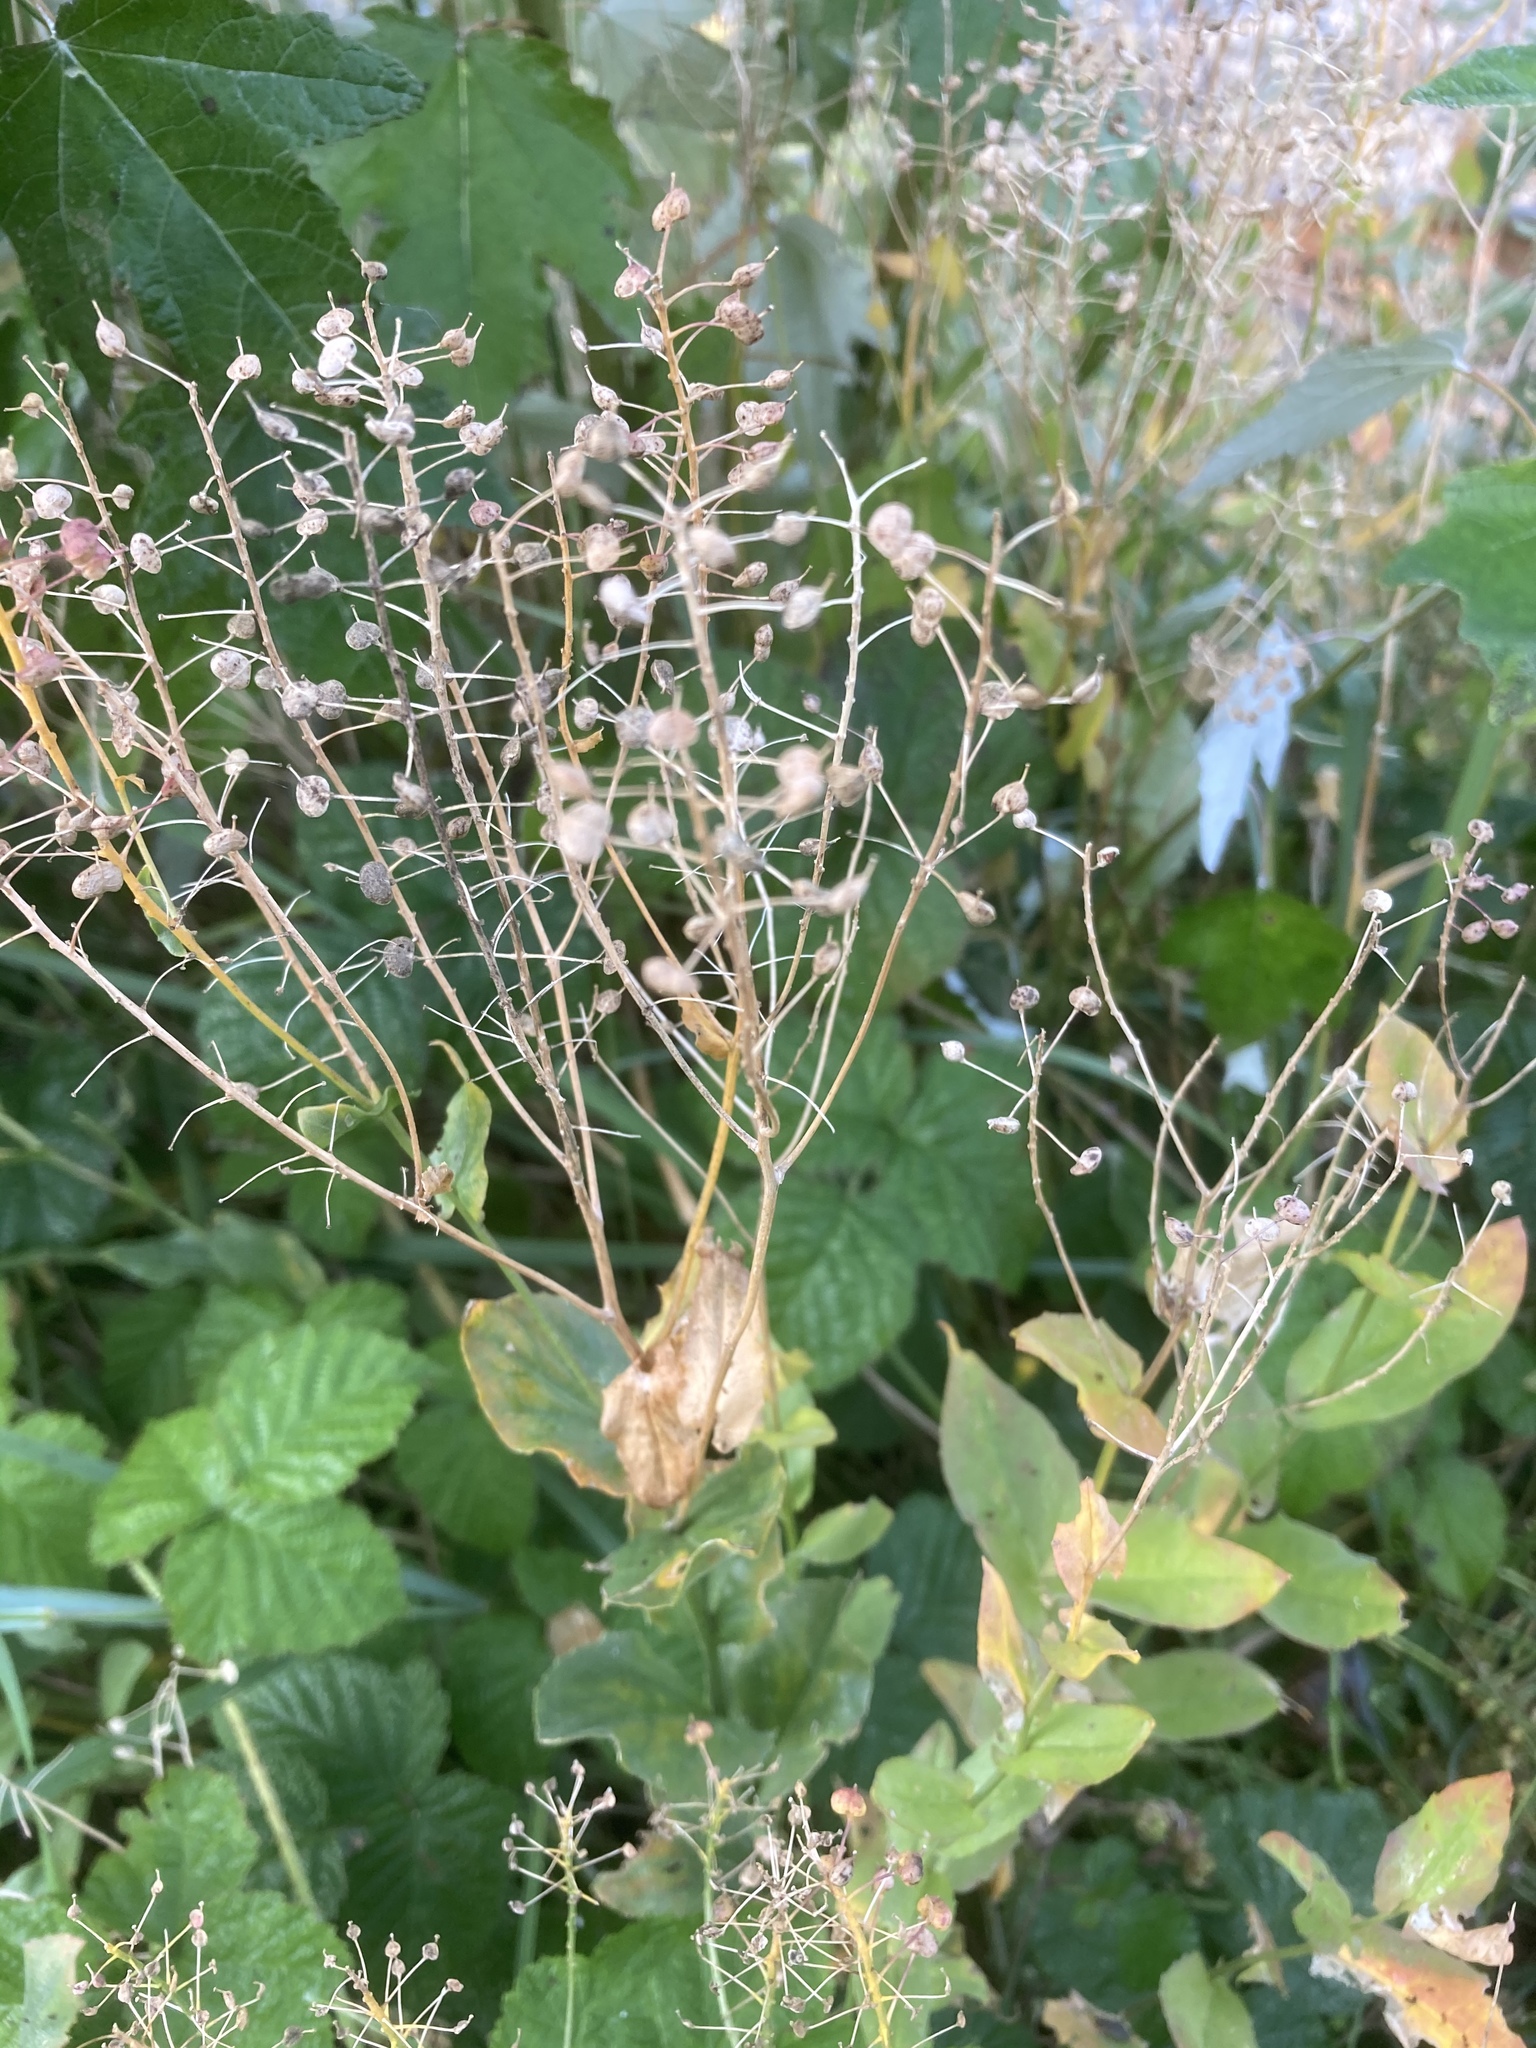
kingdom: Plantae
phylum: Tracheophyta
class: Magnoliopsida
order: Brassicales
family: Brassicaceae
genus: Lepidium
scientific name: Lepidium draba
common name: Hoary cress
